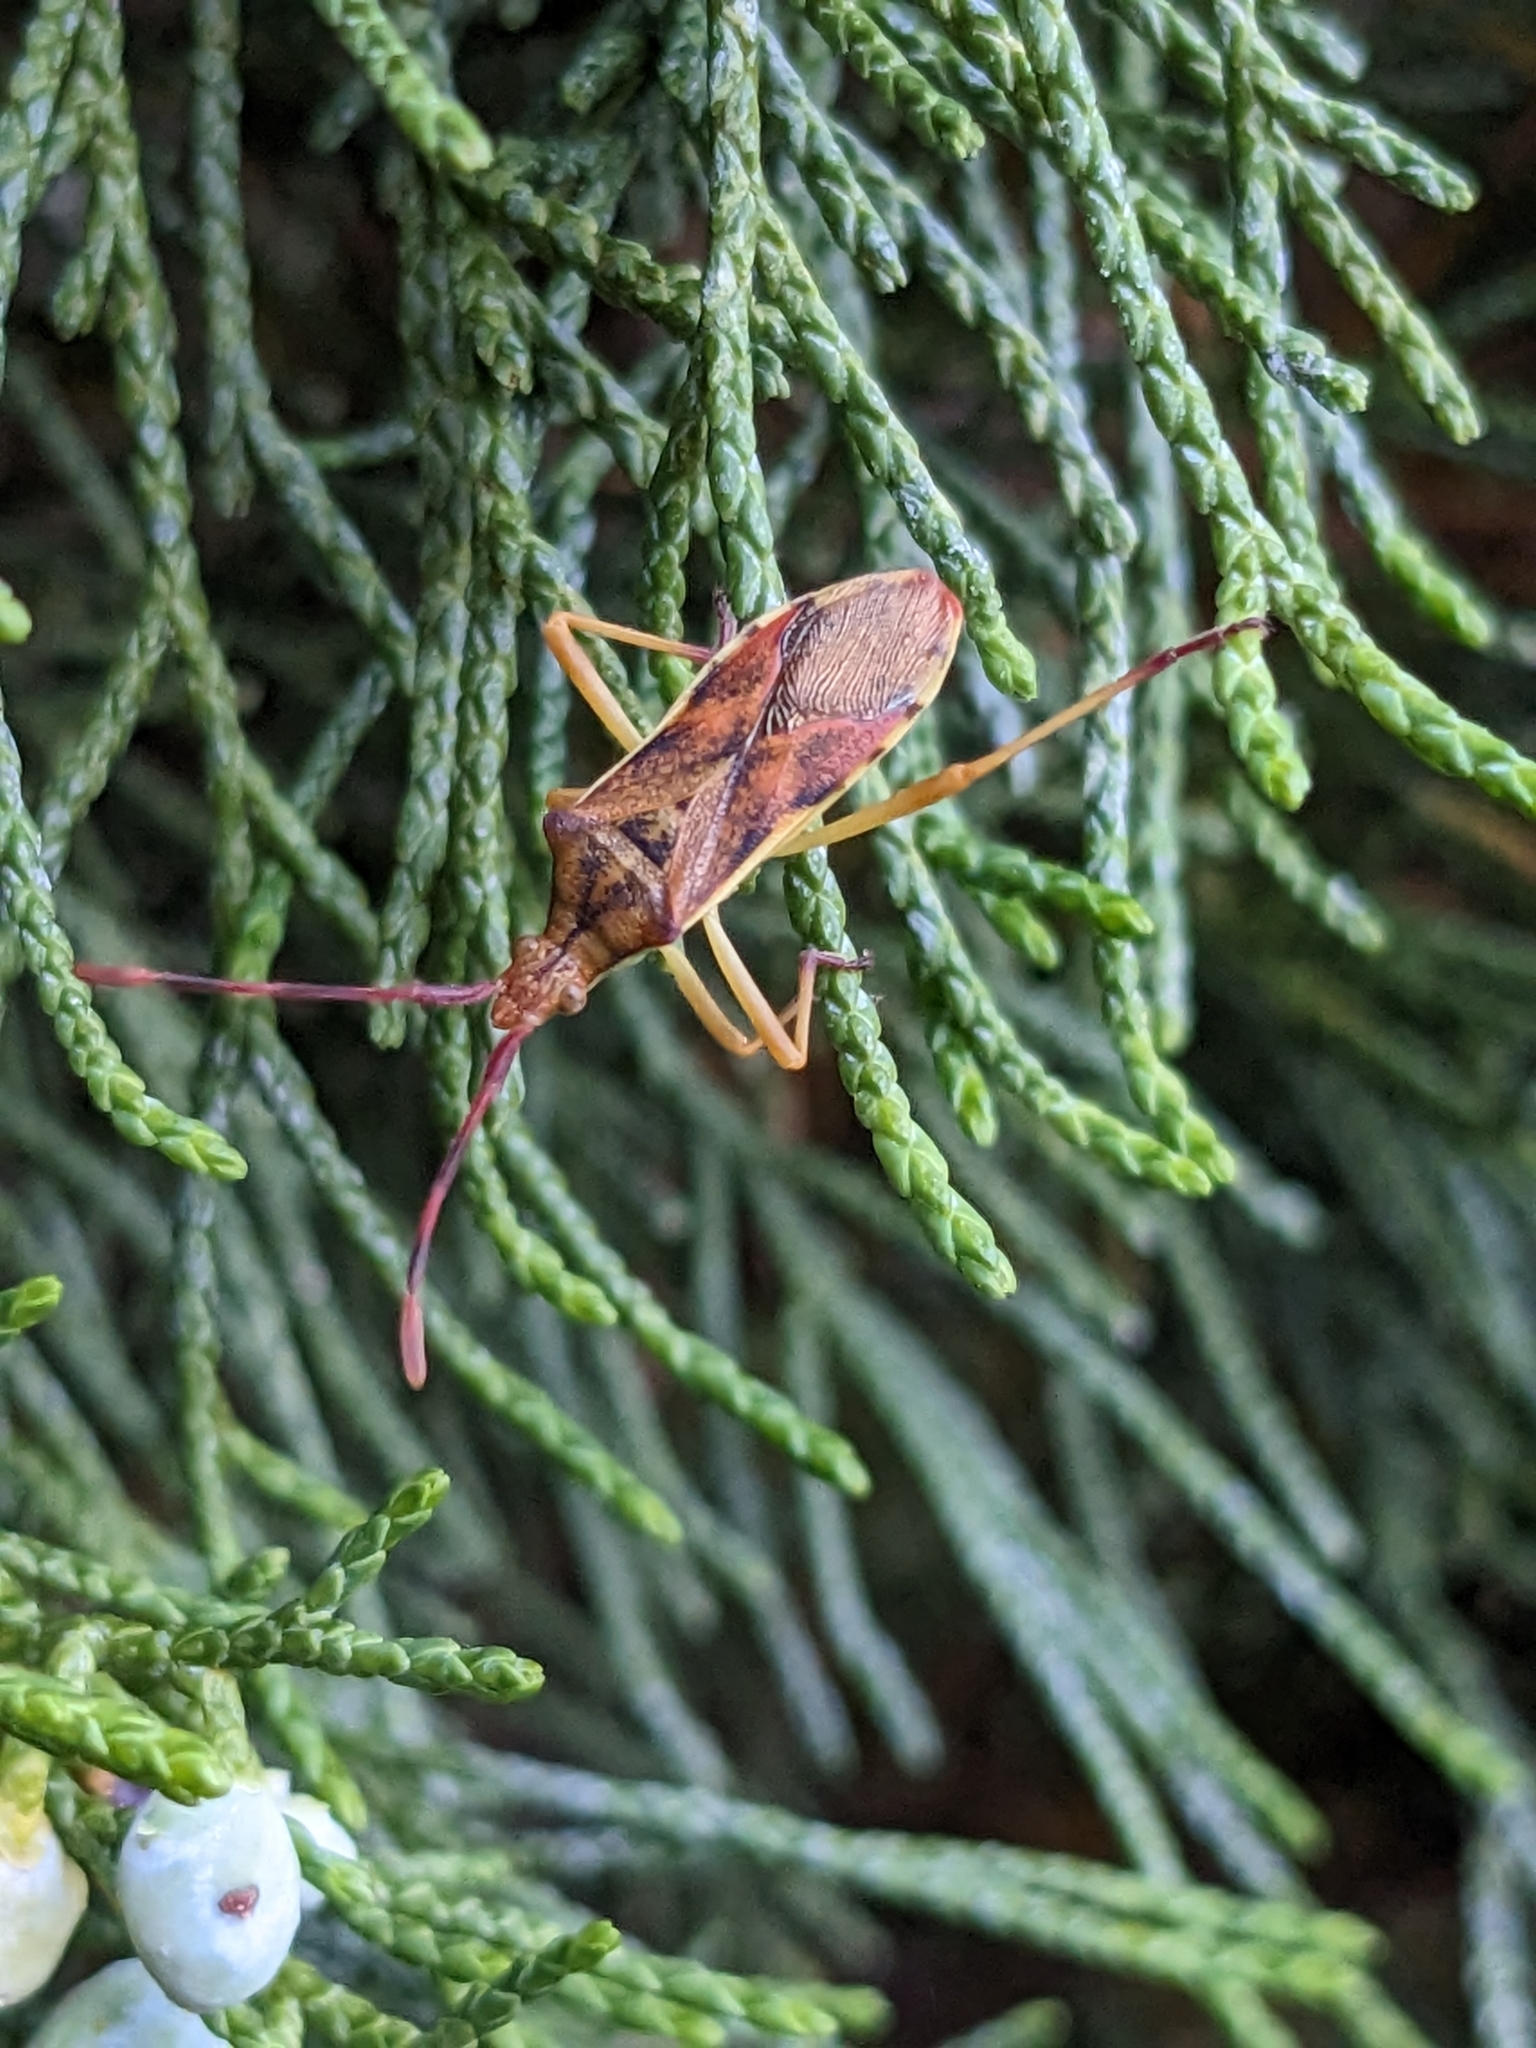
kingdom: Animalia
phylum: Arthropoda
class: Insecta
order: Hemiptera
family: Coreidae
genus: Gonocerus
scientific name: Gonocerus juniperi
